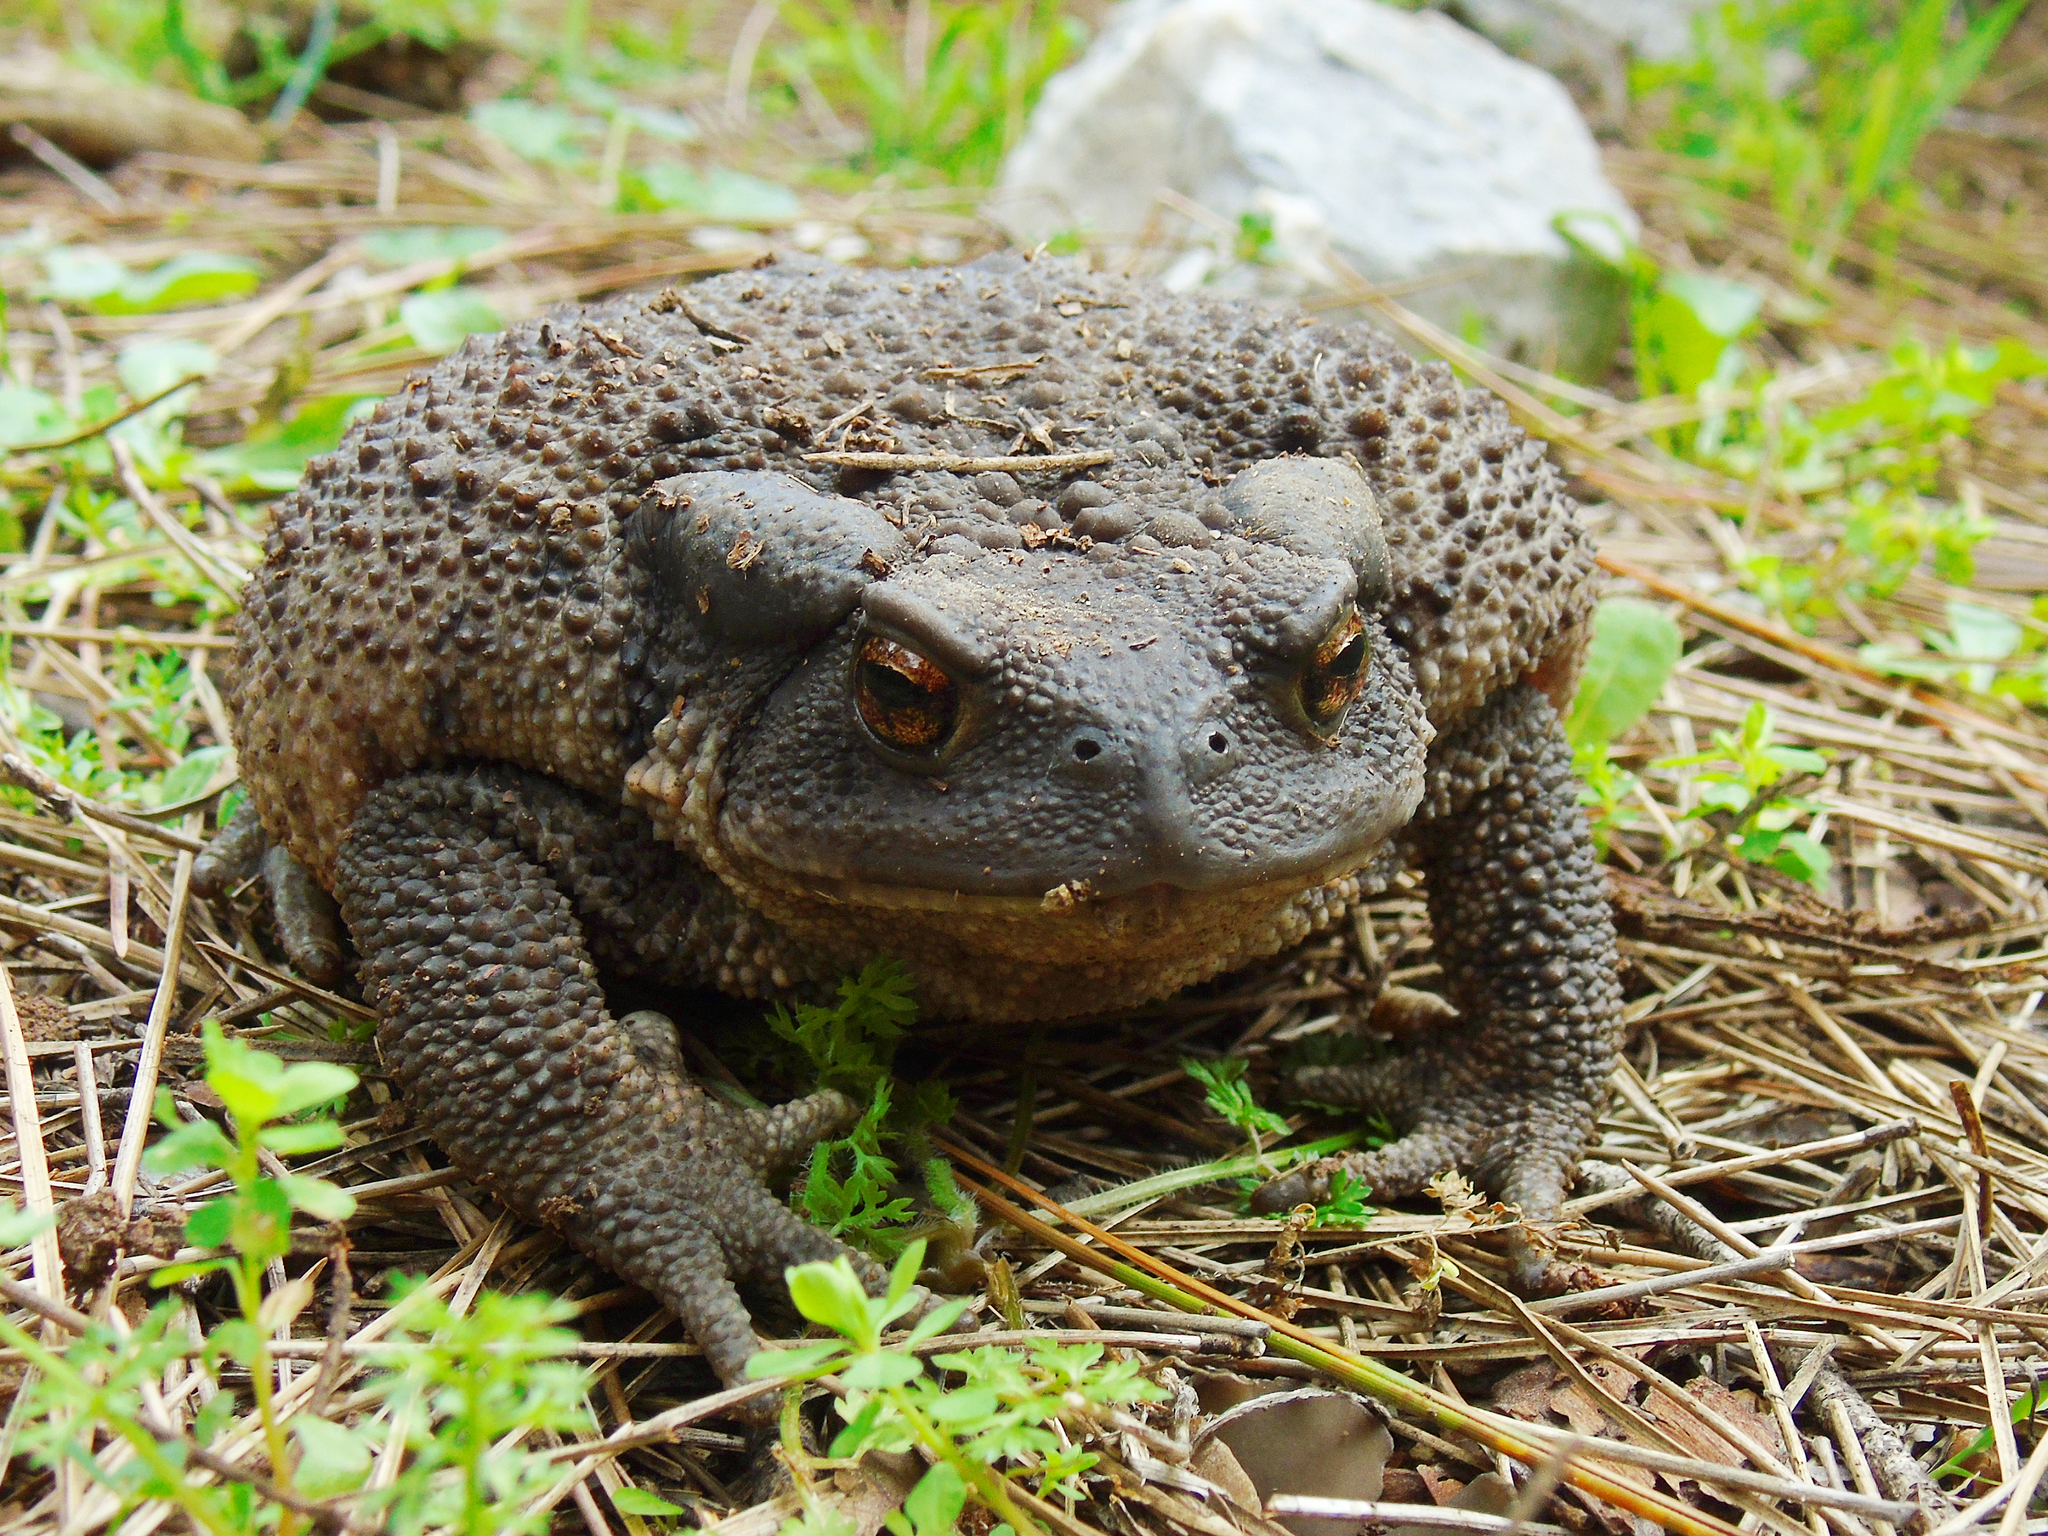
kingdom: Animalia
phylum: Chordata
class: Amphibia
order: Anura
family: Bufonidae
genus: Bufo
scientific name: Bufo verrucosissimus
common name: Caucasian toad
